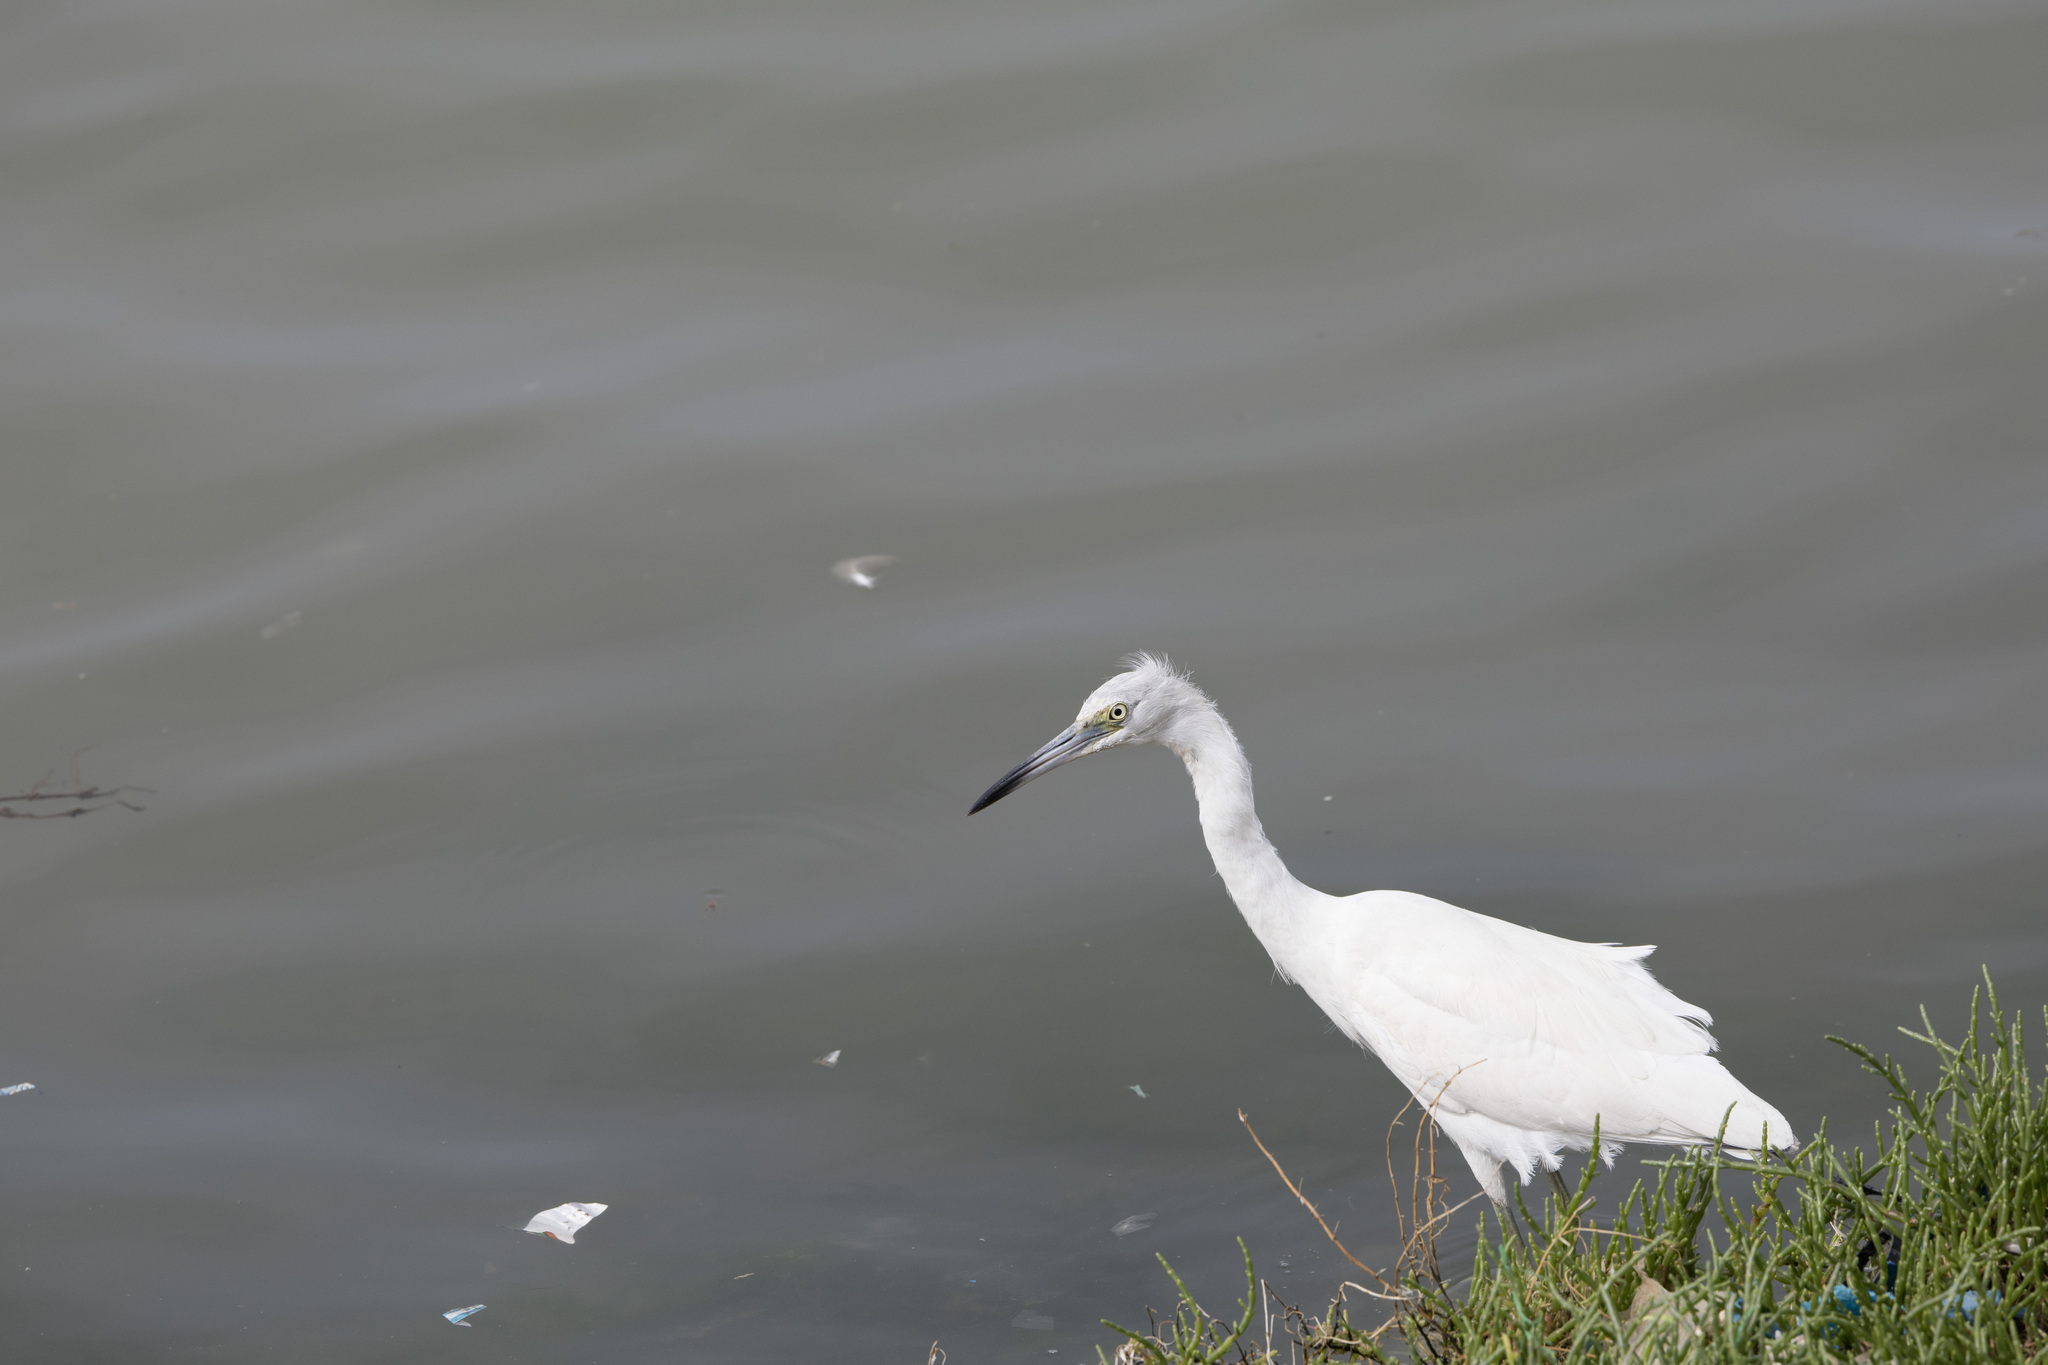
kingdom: Animalia
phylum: Chordata
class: Aves
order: Pelecaniformes
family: Ardeidae
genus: Egretta
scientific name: Egretta caerulea
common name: Little blue heron
